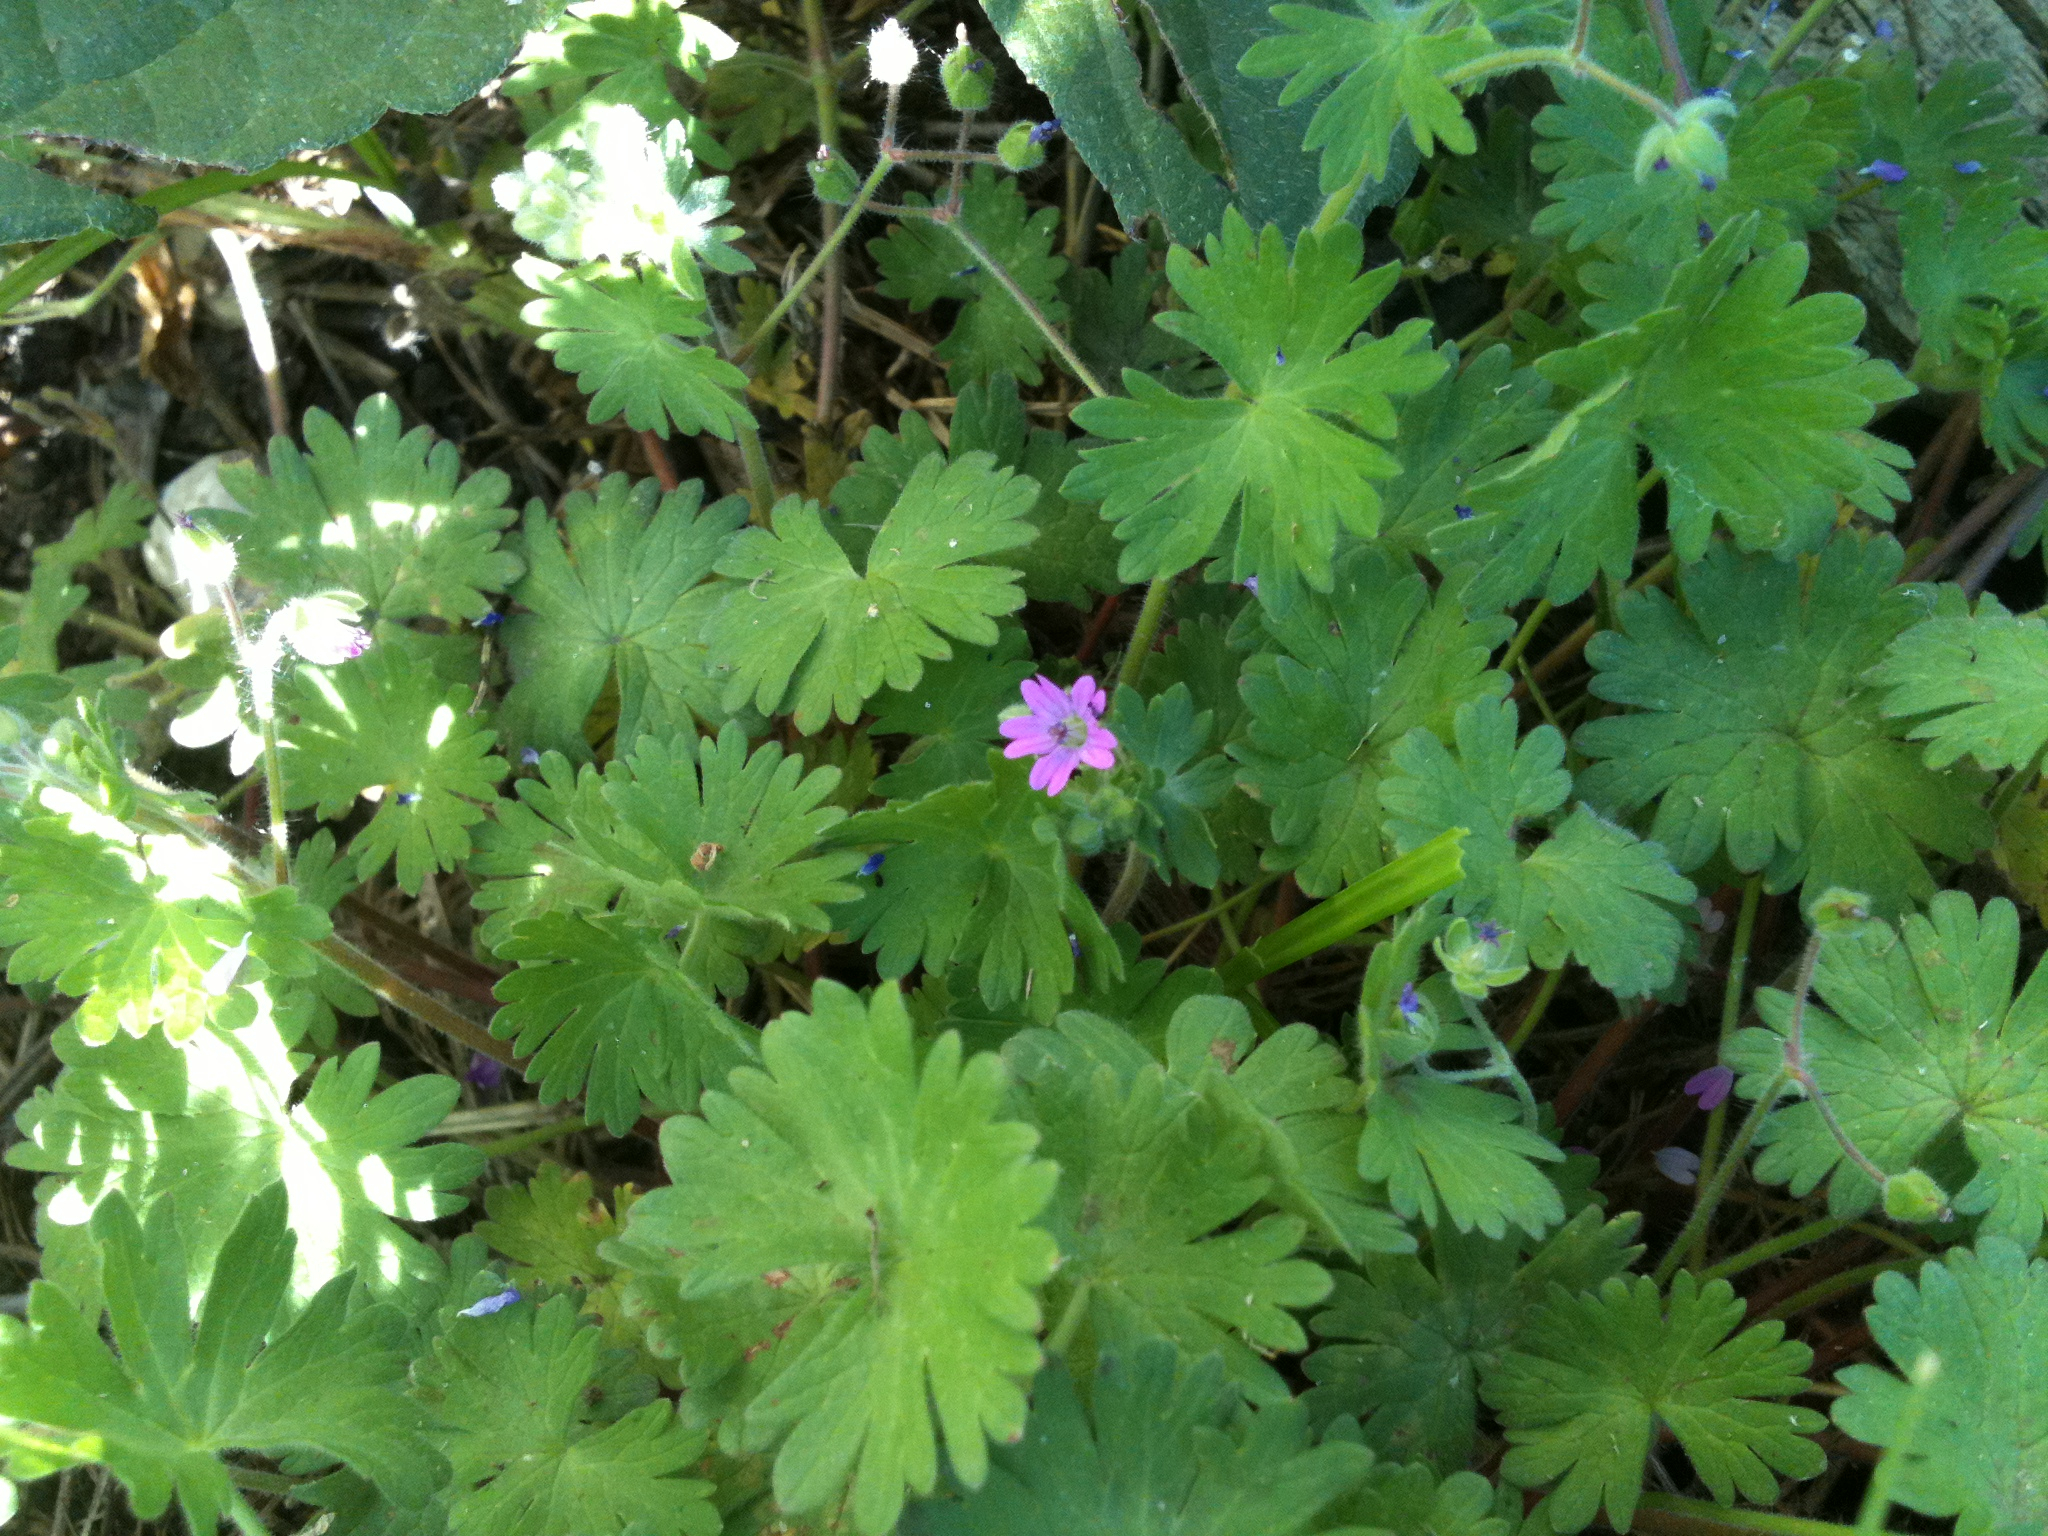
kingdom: Plantae
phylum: Tracheophyta
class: Magnoliopsida
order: Geraniales
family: Geraniaceae
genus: Geranium
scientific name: Geranium molle
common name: Dove's-foot crane's-bill
